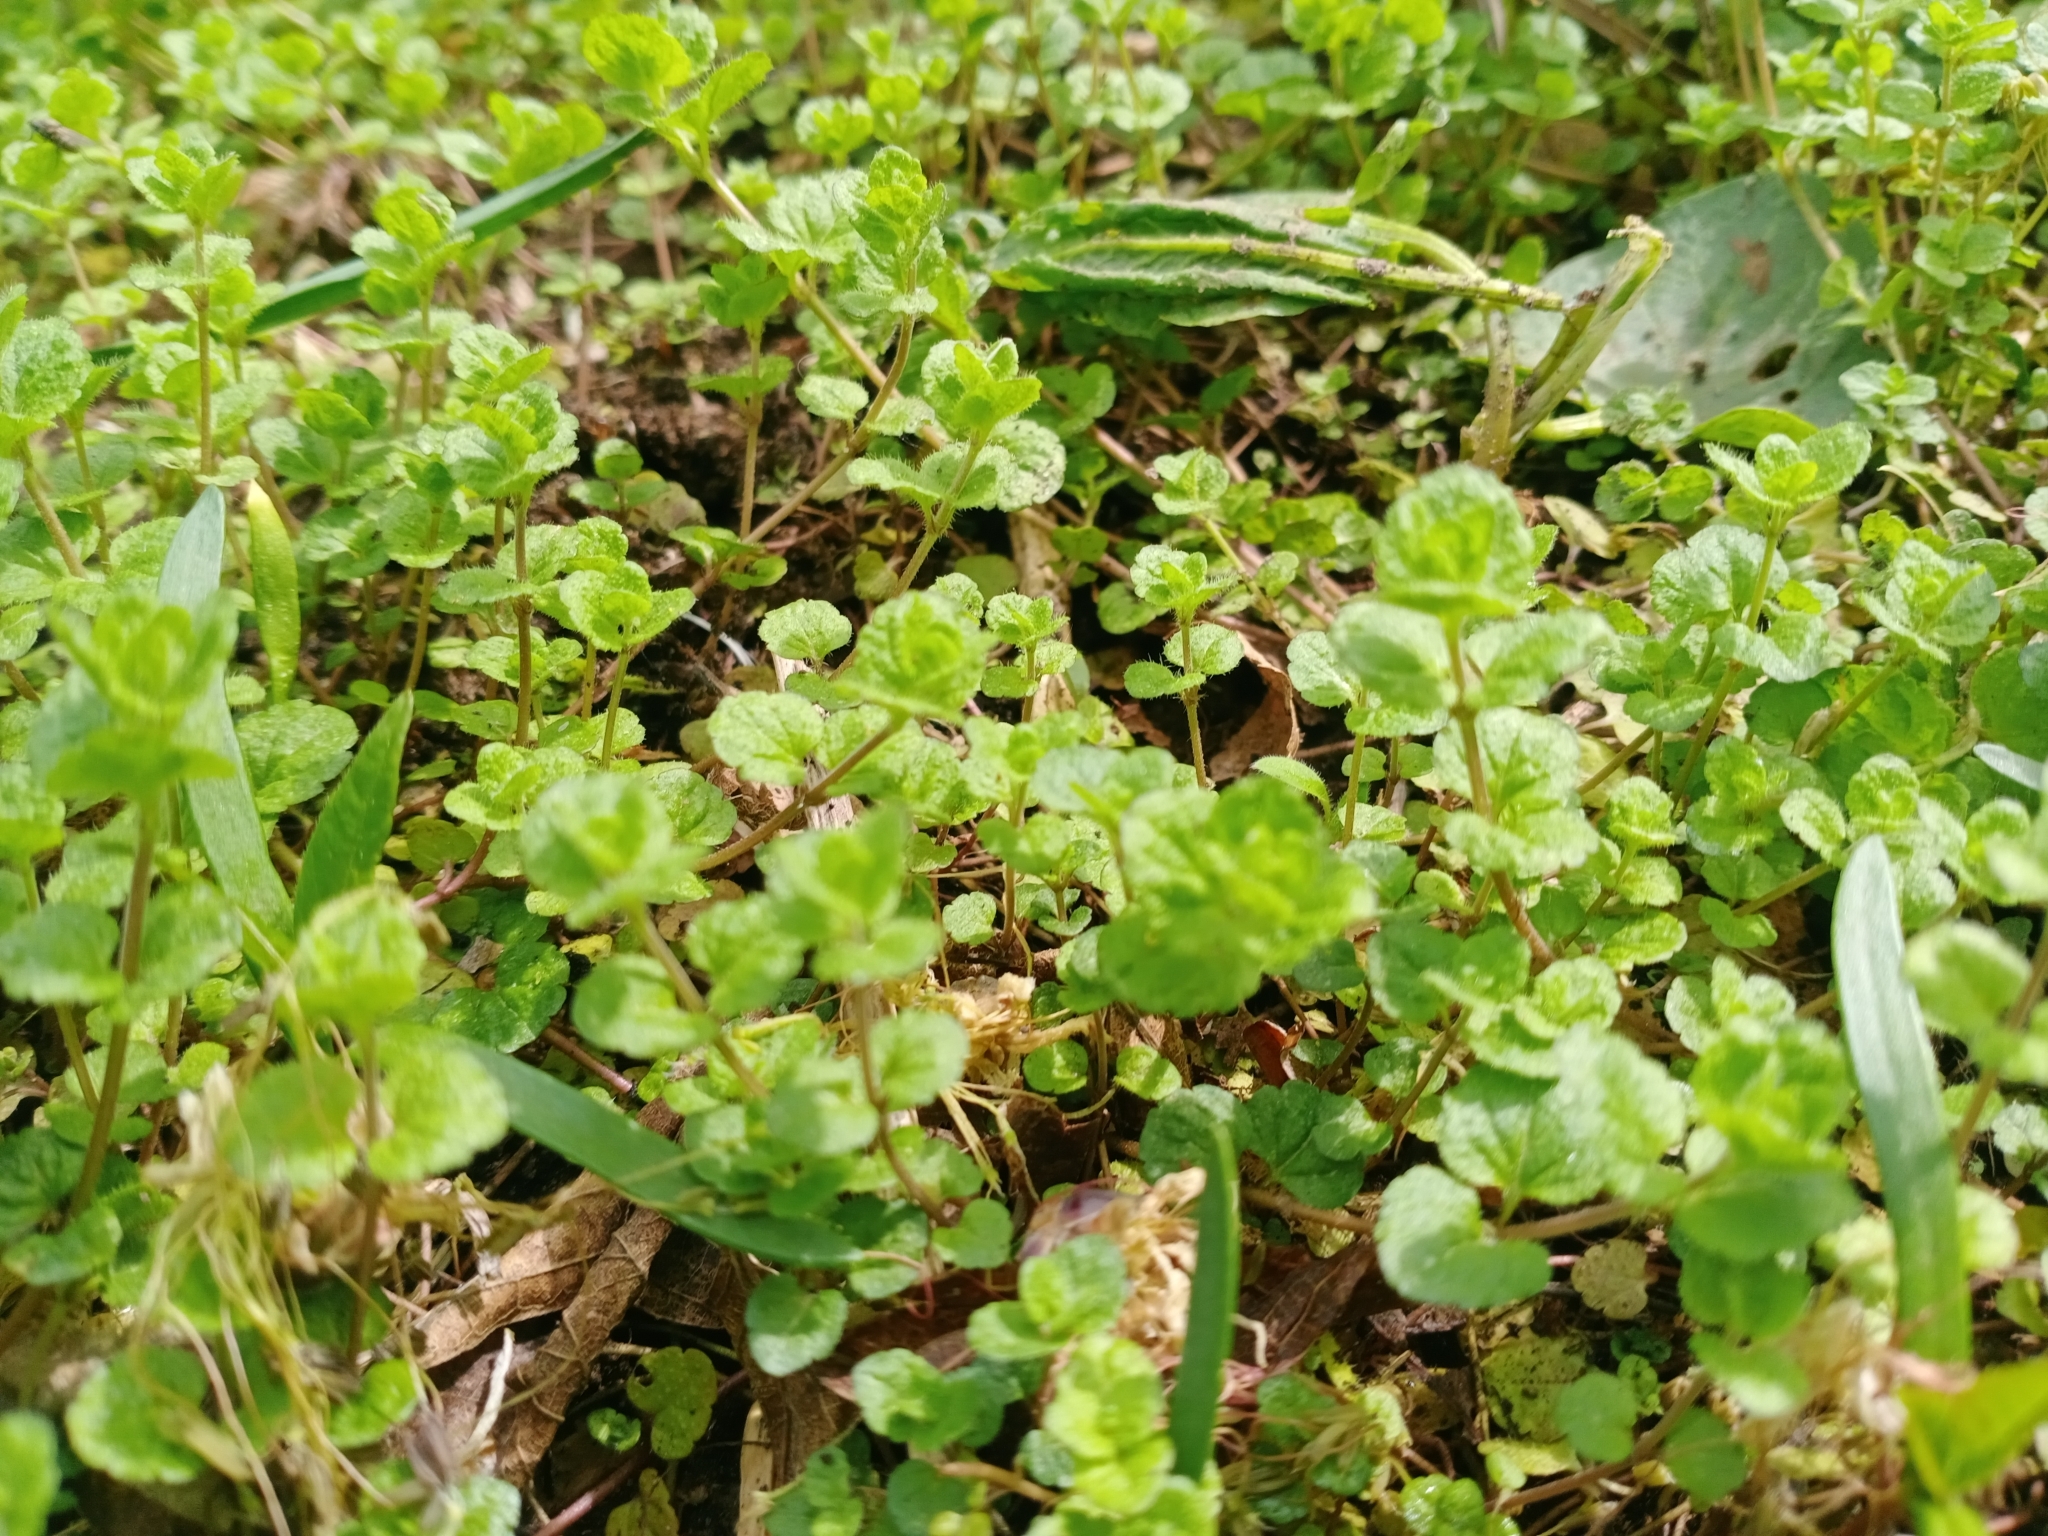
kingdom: Plantae
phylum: Tracheophyta
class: Magnoliopsida
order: Lamiales
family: Plantaginaceae
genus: Veronica
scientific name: Veronica filiformis
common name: Slender speedwell
